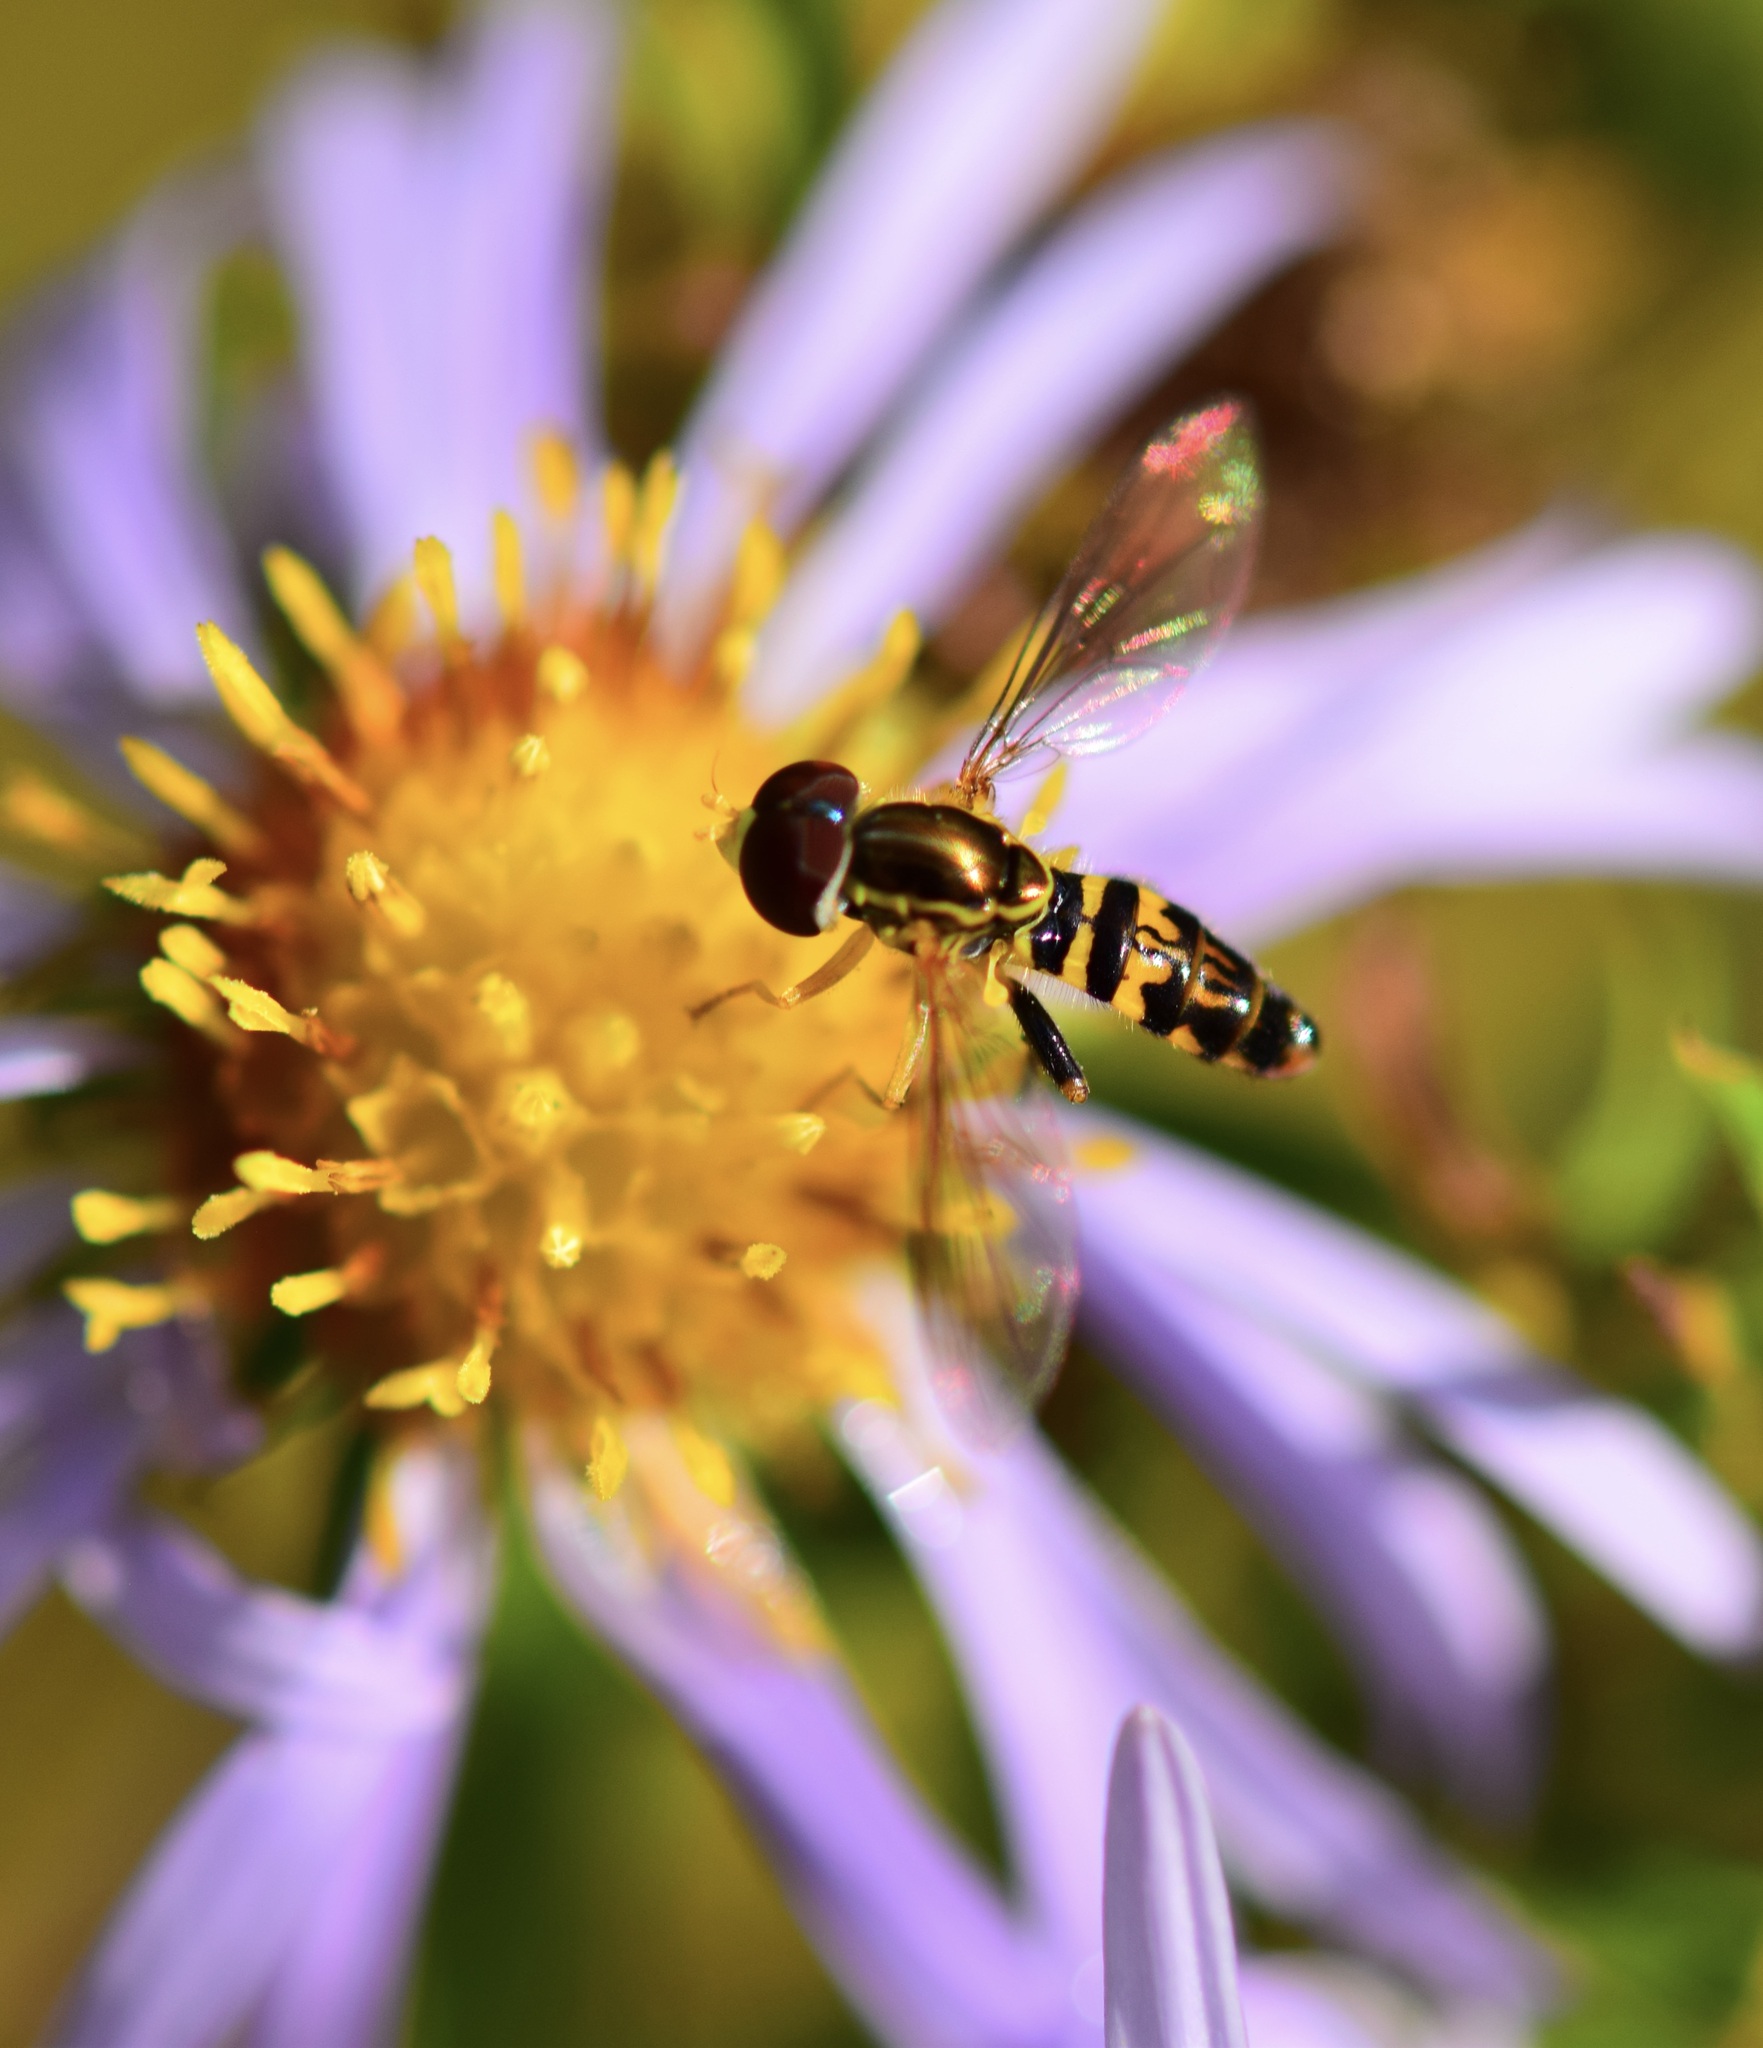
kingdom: Animalia
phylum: Arthropoda
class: Insecta
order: Diptera
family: Syrphidae
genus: Toxomerus
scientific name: Toxomerus geminatus
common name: Eastern calligrapher
